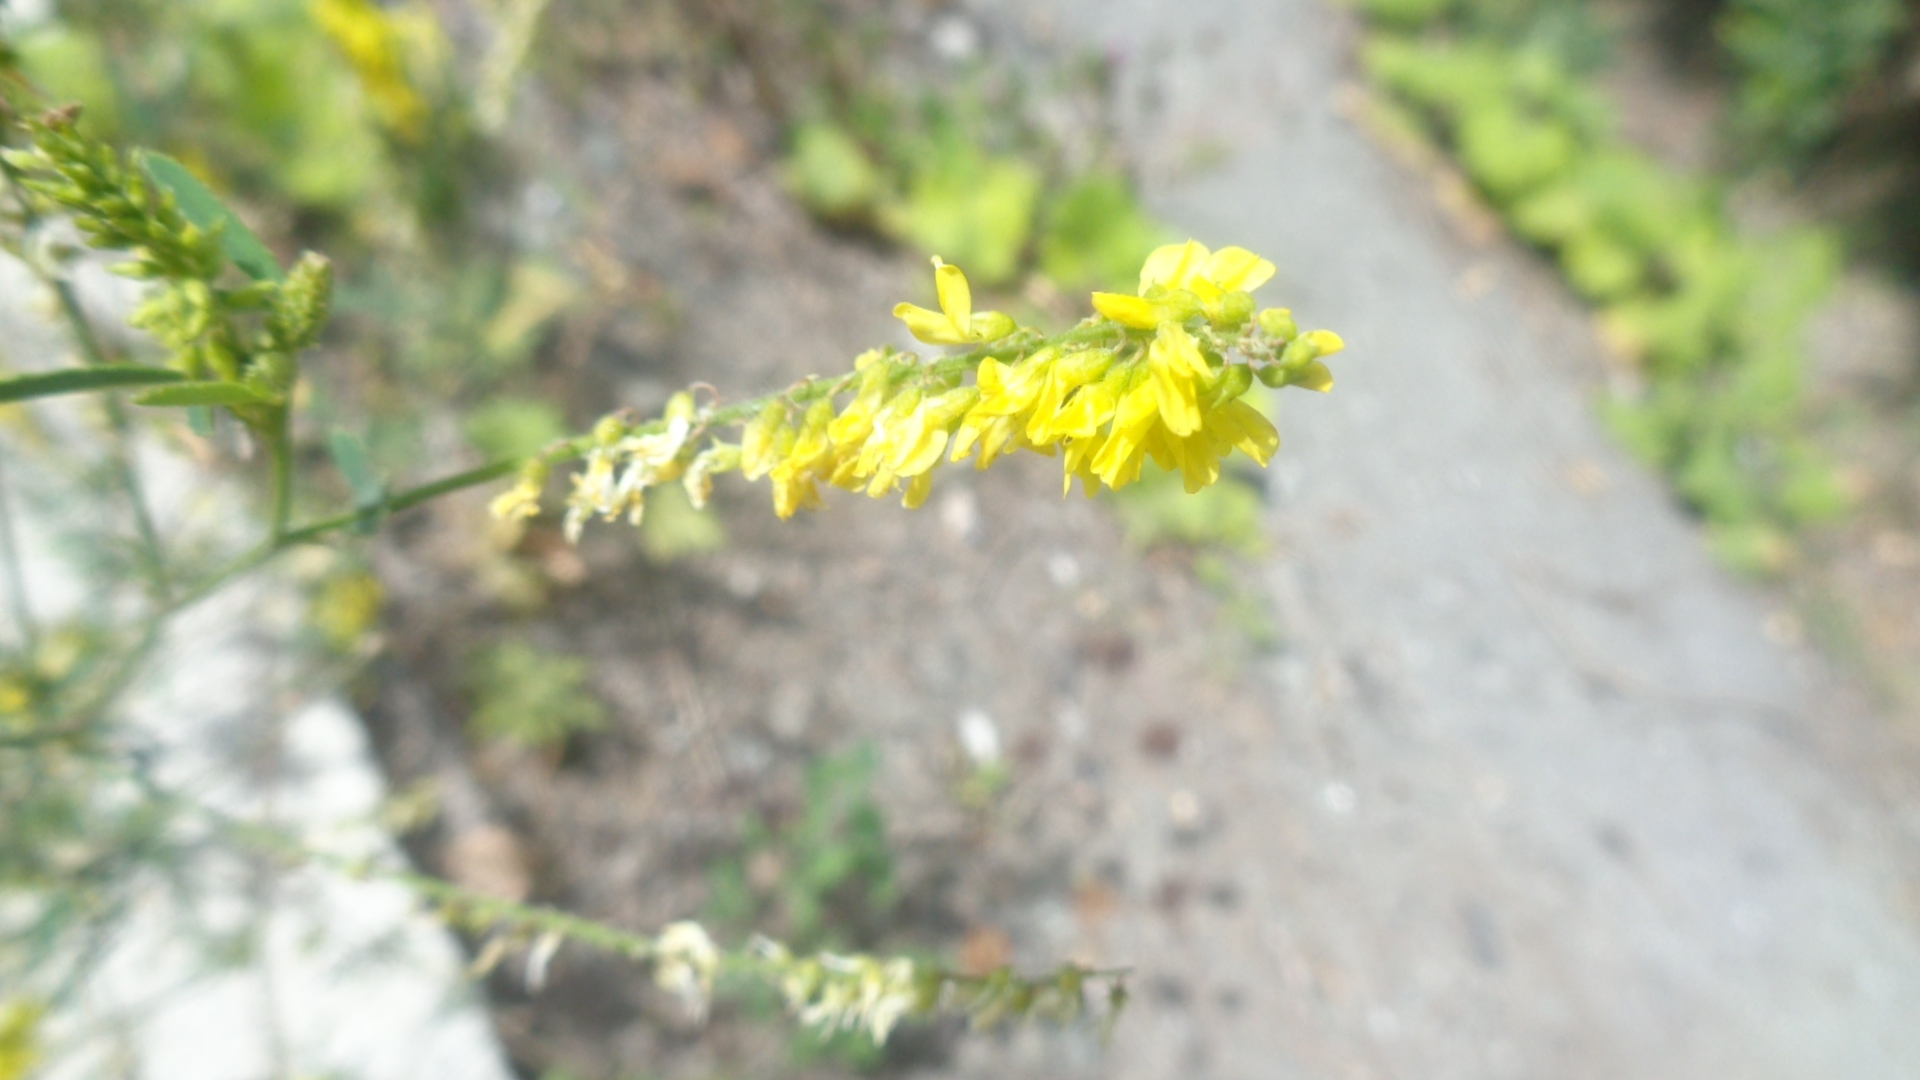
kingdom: Plantae
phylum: Tracheophyta
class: Magnoliopsida
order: Fabales
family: Fabaceae
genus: Melilotus
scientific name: Melilotus officinalis
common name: Sweetclover
